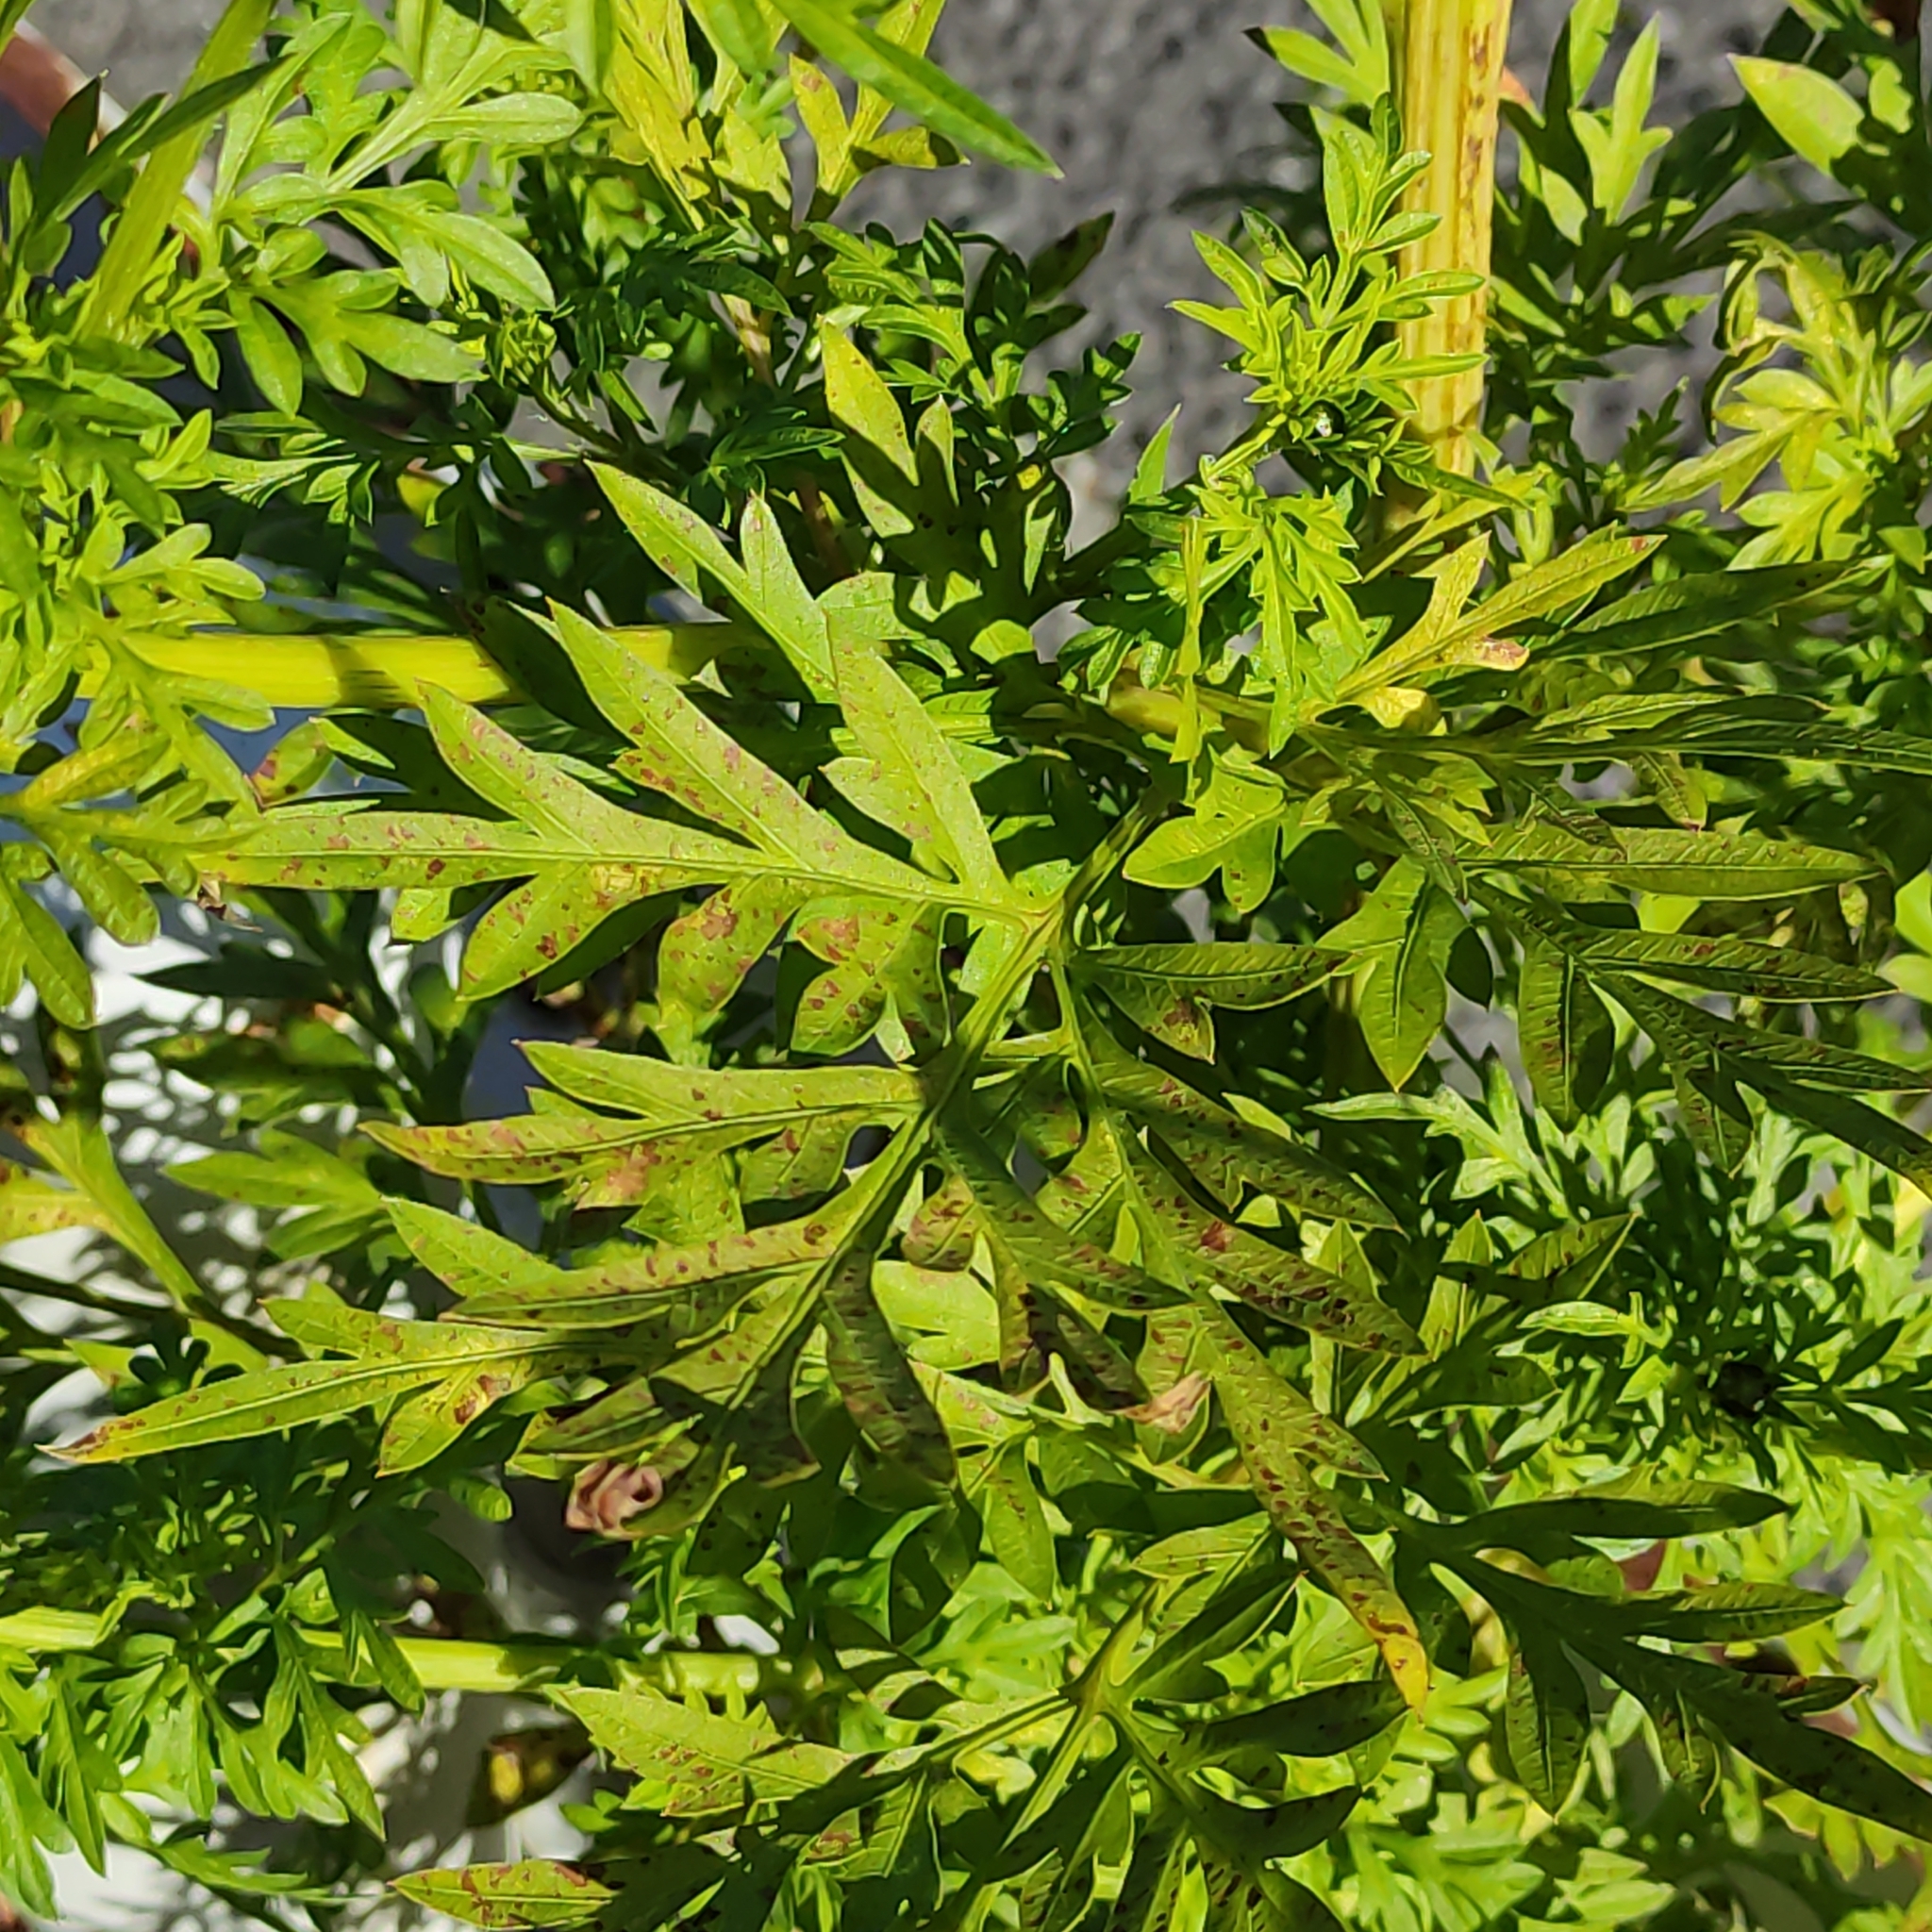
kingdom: Plantae
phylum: Tracheophyta
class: Magnoliopsida
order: Asterales
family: Asteraceae
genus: Cosmos
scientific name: Cosmos sulphureus
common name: Sulphur cosmos
